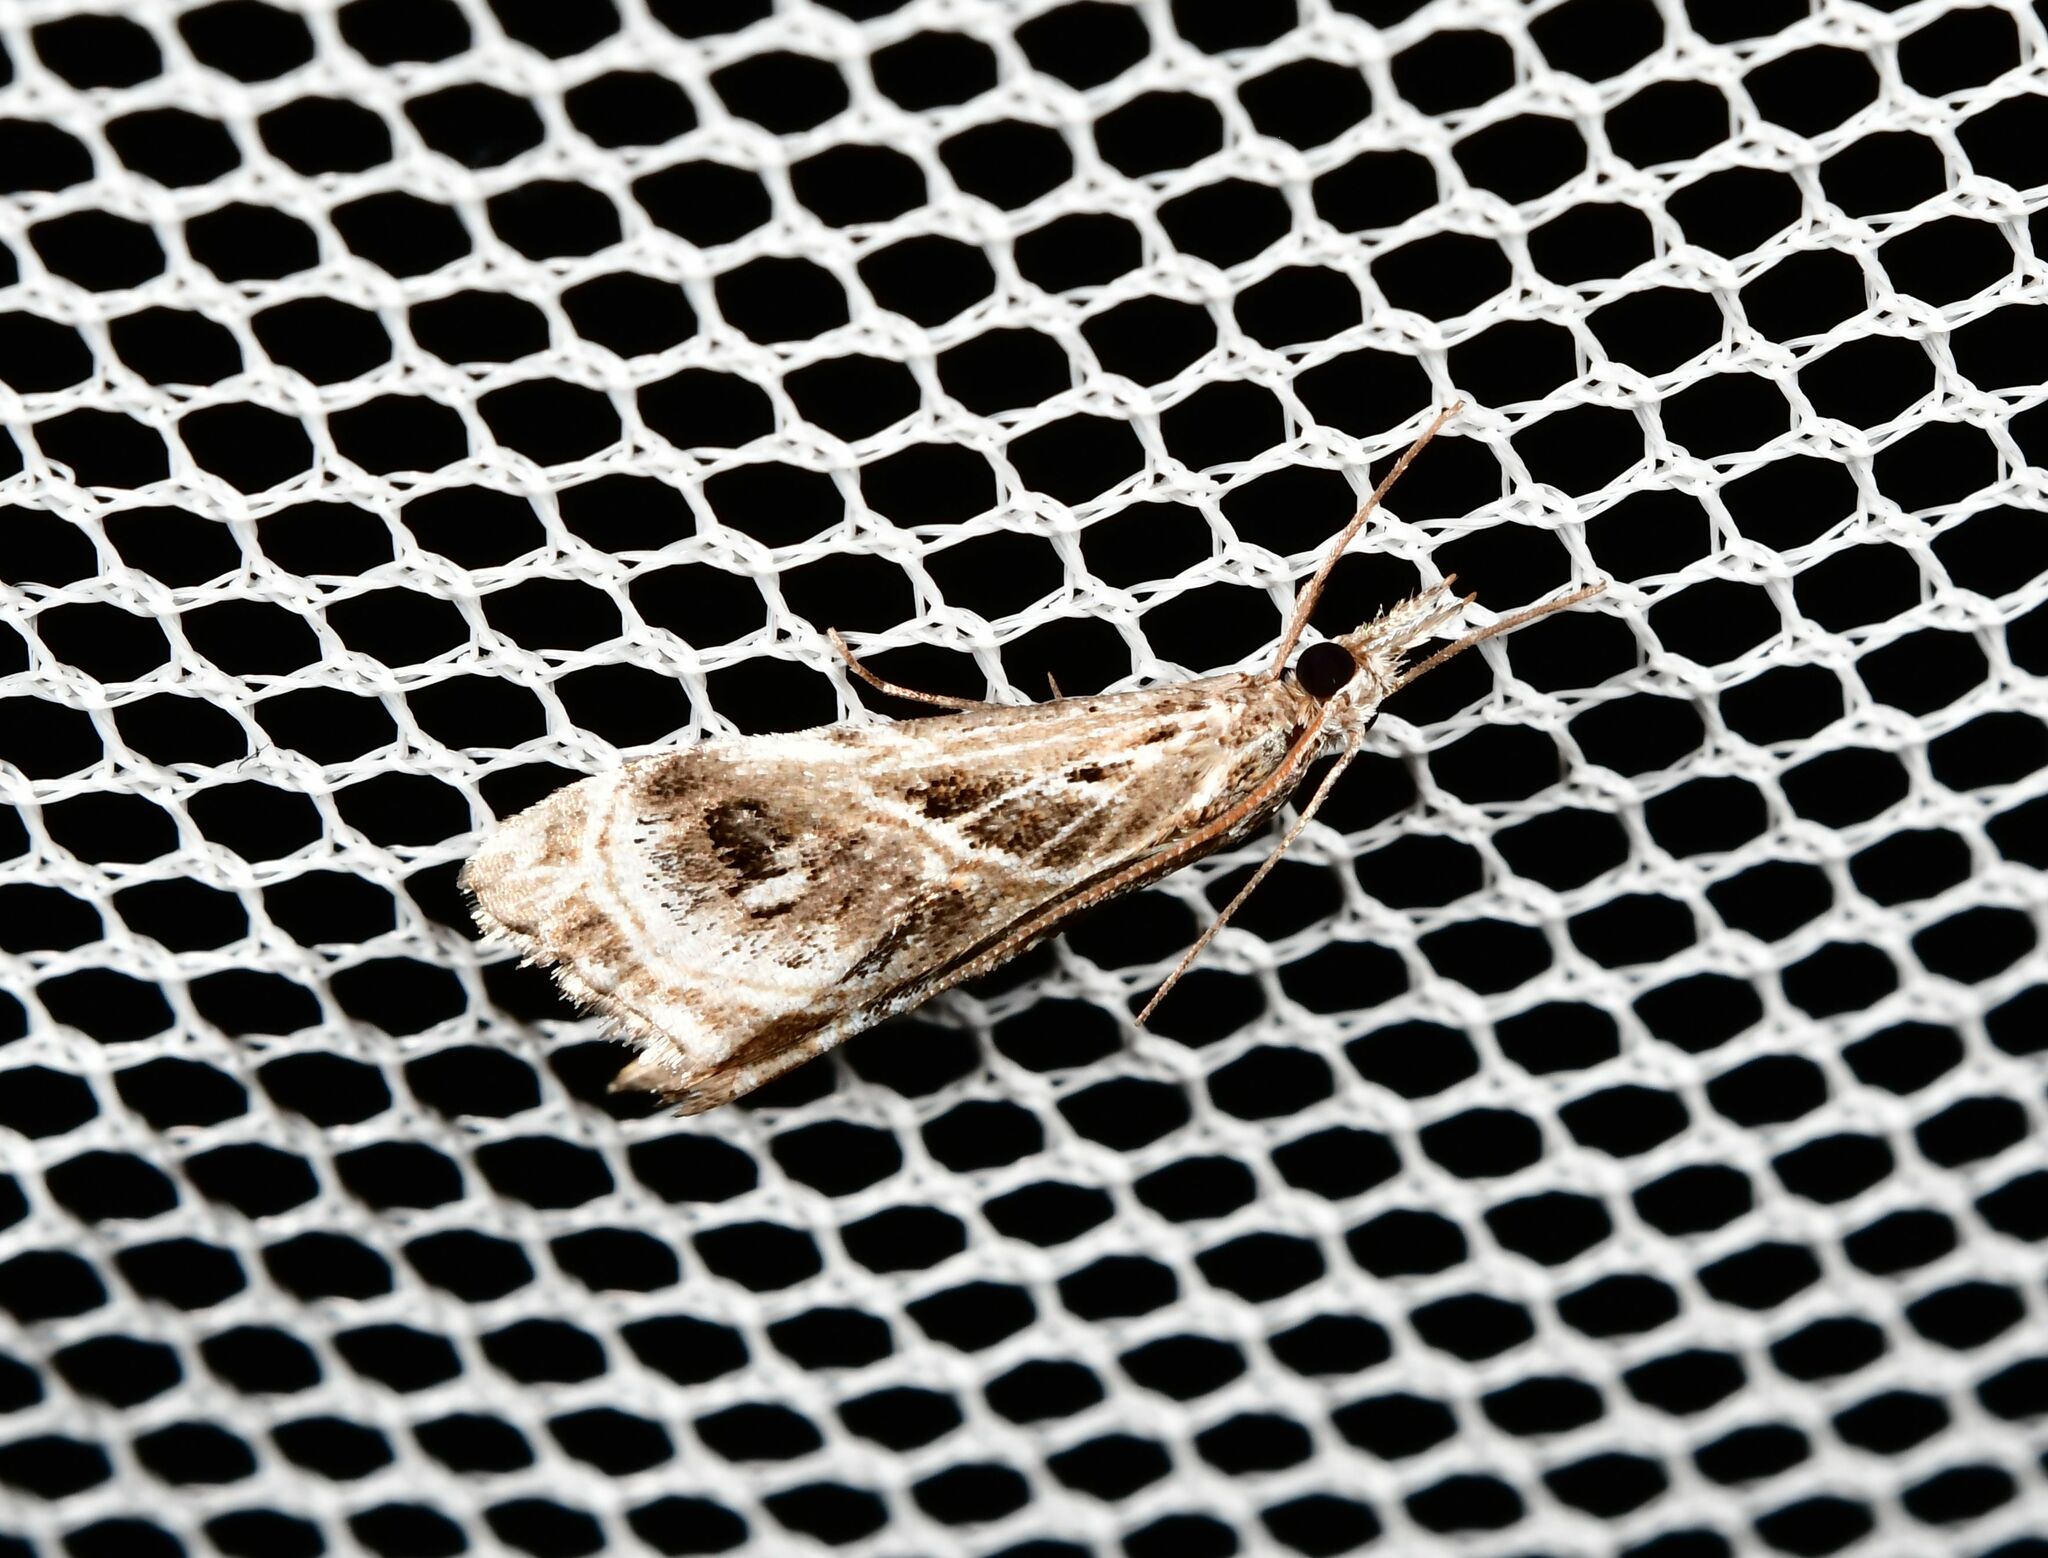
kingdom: Animalia
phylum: Arthropoda
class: Insecta
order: Lepidoptera
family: Crambidae
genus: Gadira
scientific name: Gadira acerella
